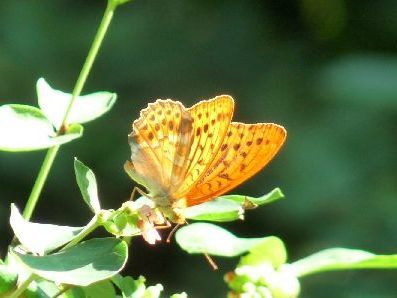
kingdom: Animalia
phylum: Arthropoda
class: Insecta
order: Lepidoptera
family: Nymphalidae
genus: Argynnis
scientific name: Argynnis paphia
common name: Silver-washed fritillary
